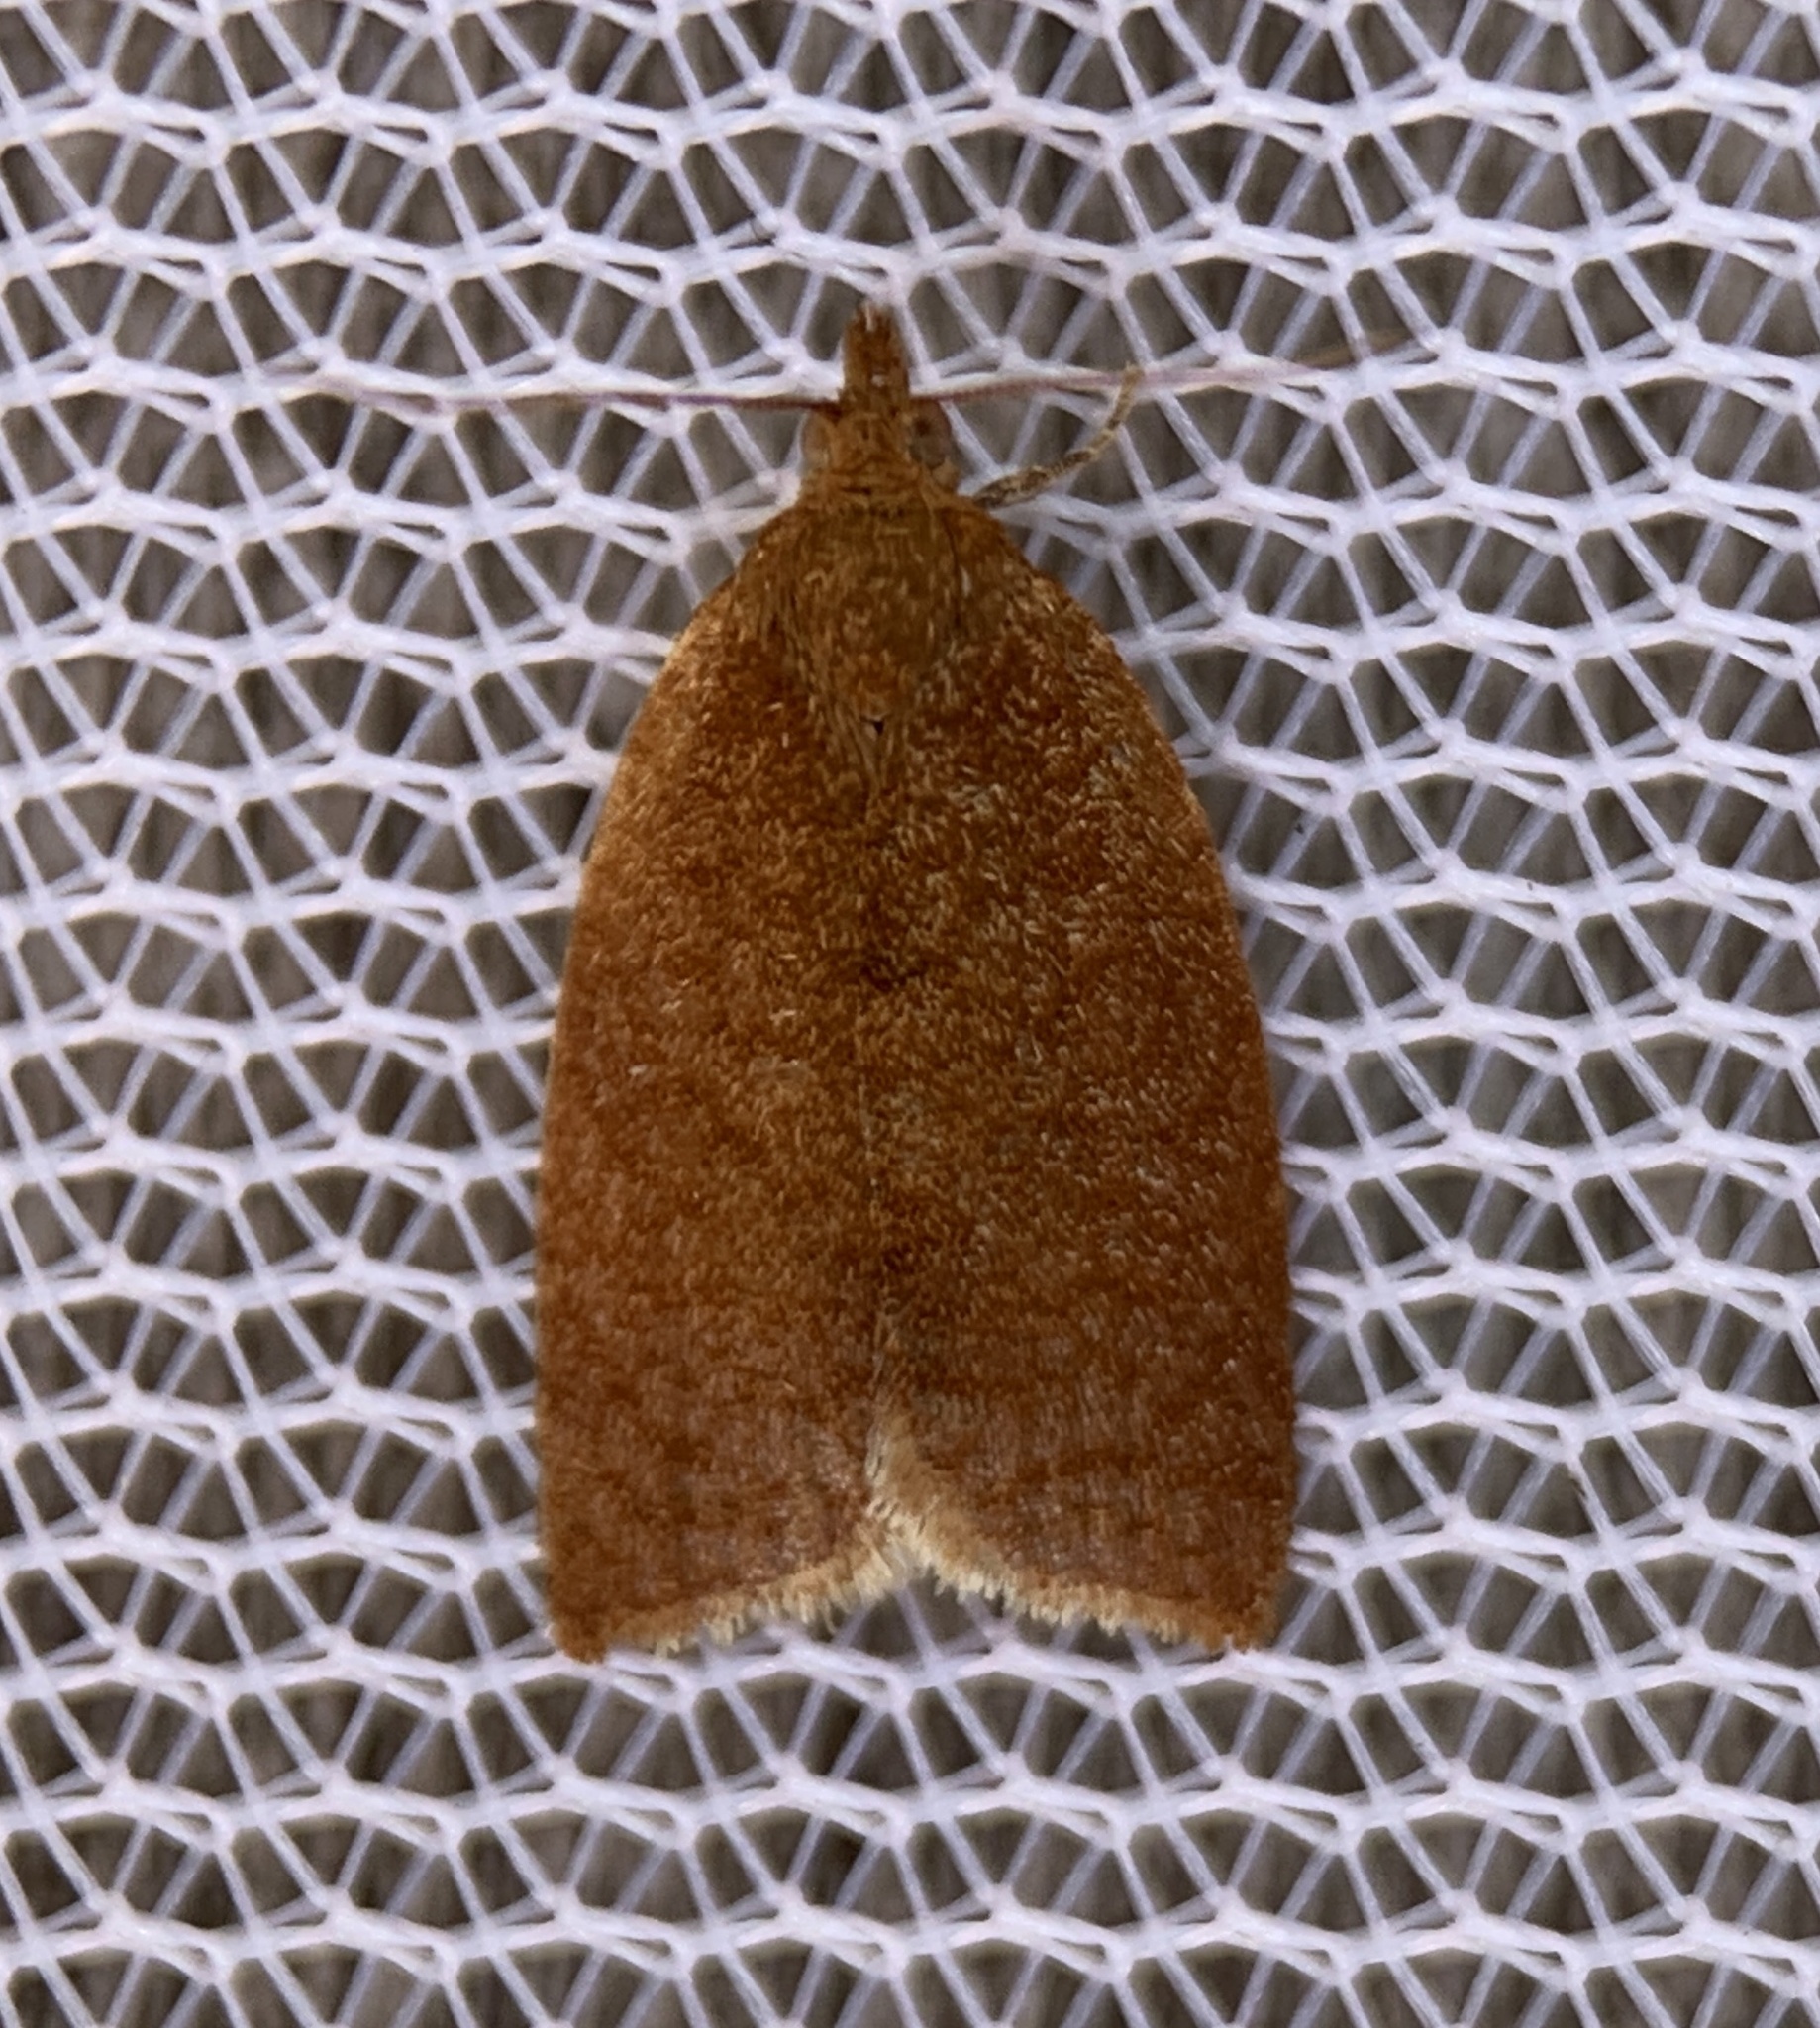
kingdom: Animalia
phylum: Arthropoda
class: Insecta
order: Lepidoptera
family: Tortricidae
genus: Clepsis
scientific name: Clepsis consimilana
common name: Privet tortrix
